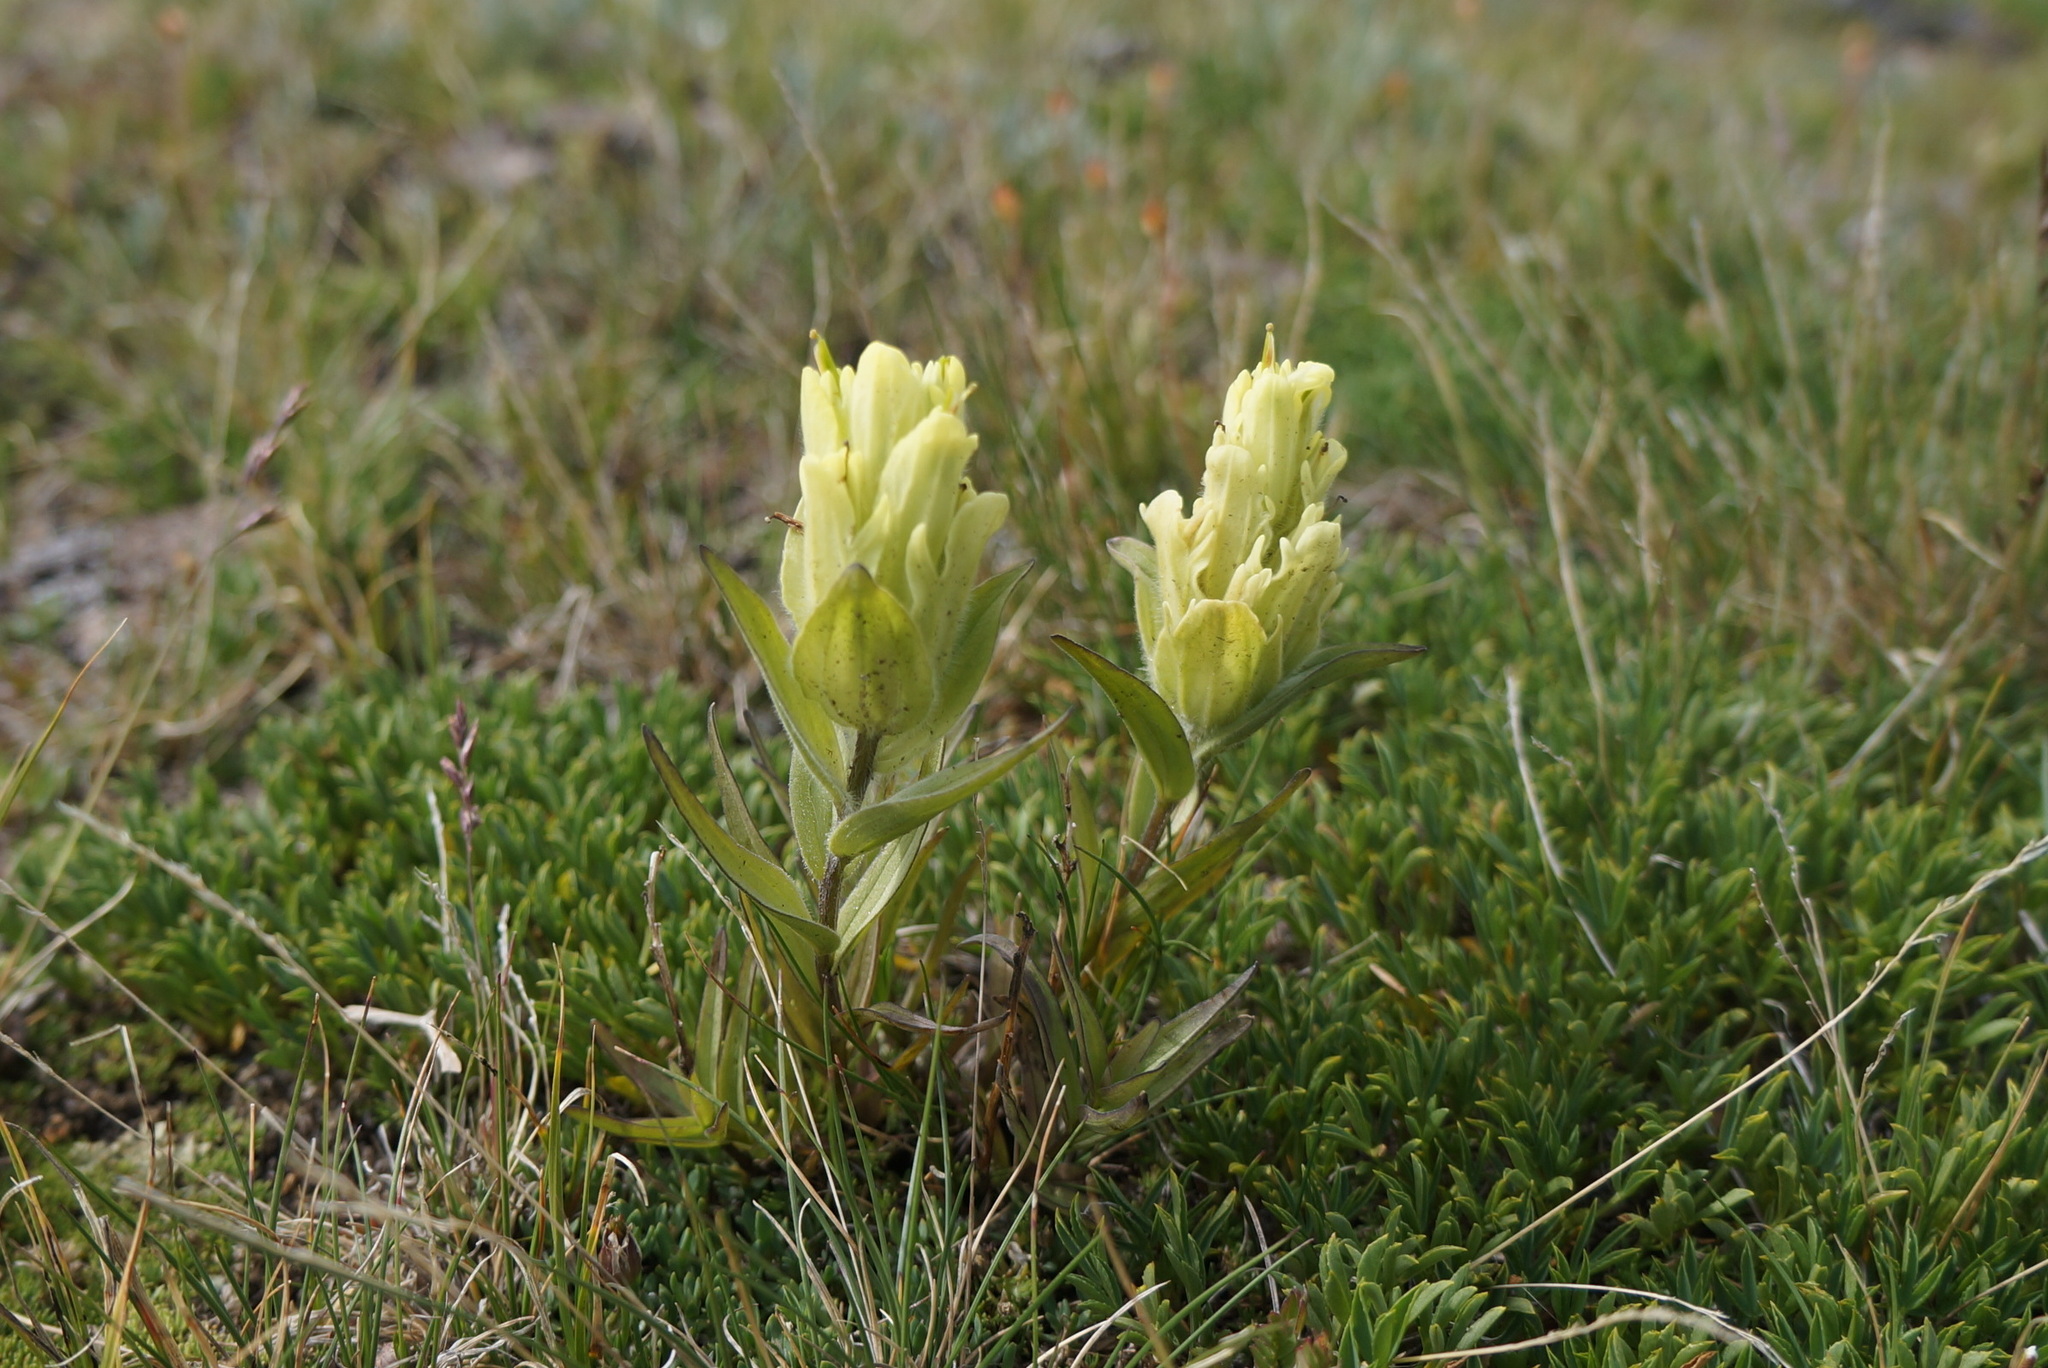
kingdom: Plantae
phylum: Tracheophyta
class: Magnoliopsida
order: Lamiales
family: Orobanchaceae
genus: Castilleja
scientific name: Castilleja occidentalis
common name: Western paintbrush
